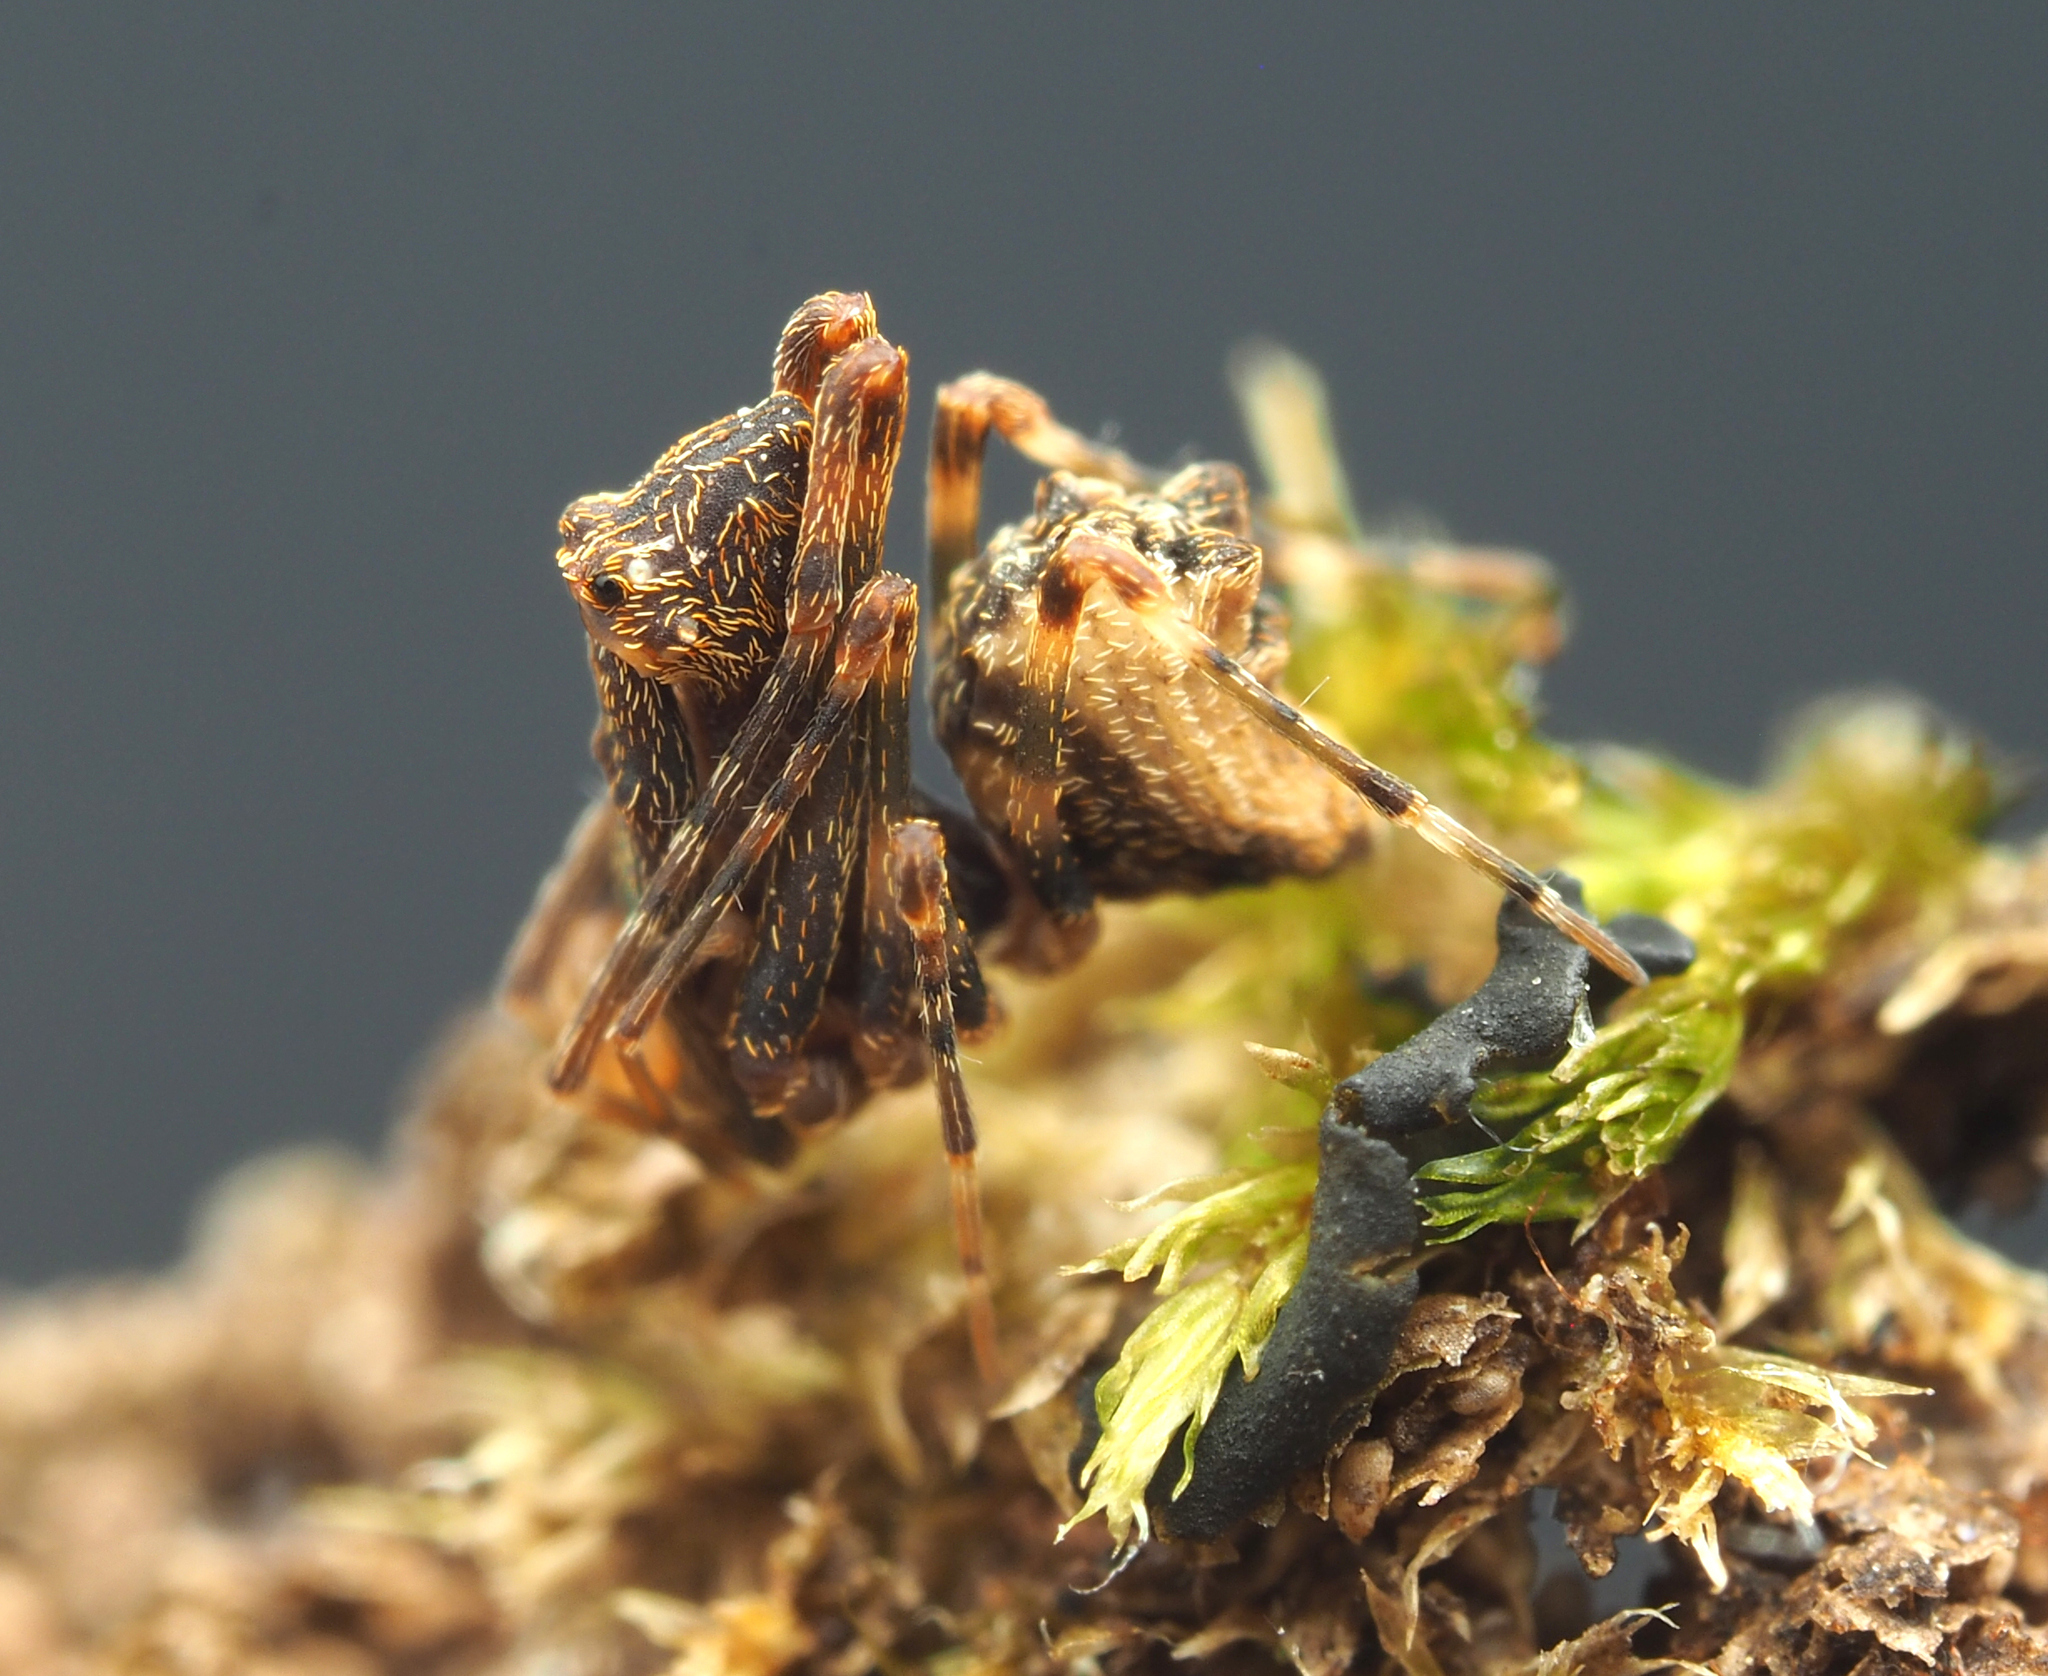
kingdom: Animalia
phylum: Arthropoda
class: Arachnida
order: Araneae
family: Archaeidae
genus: Austrarchaea
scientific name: Austrarchaea raveni
